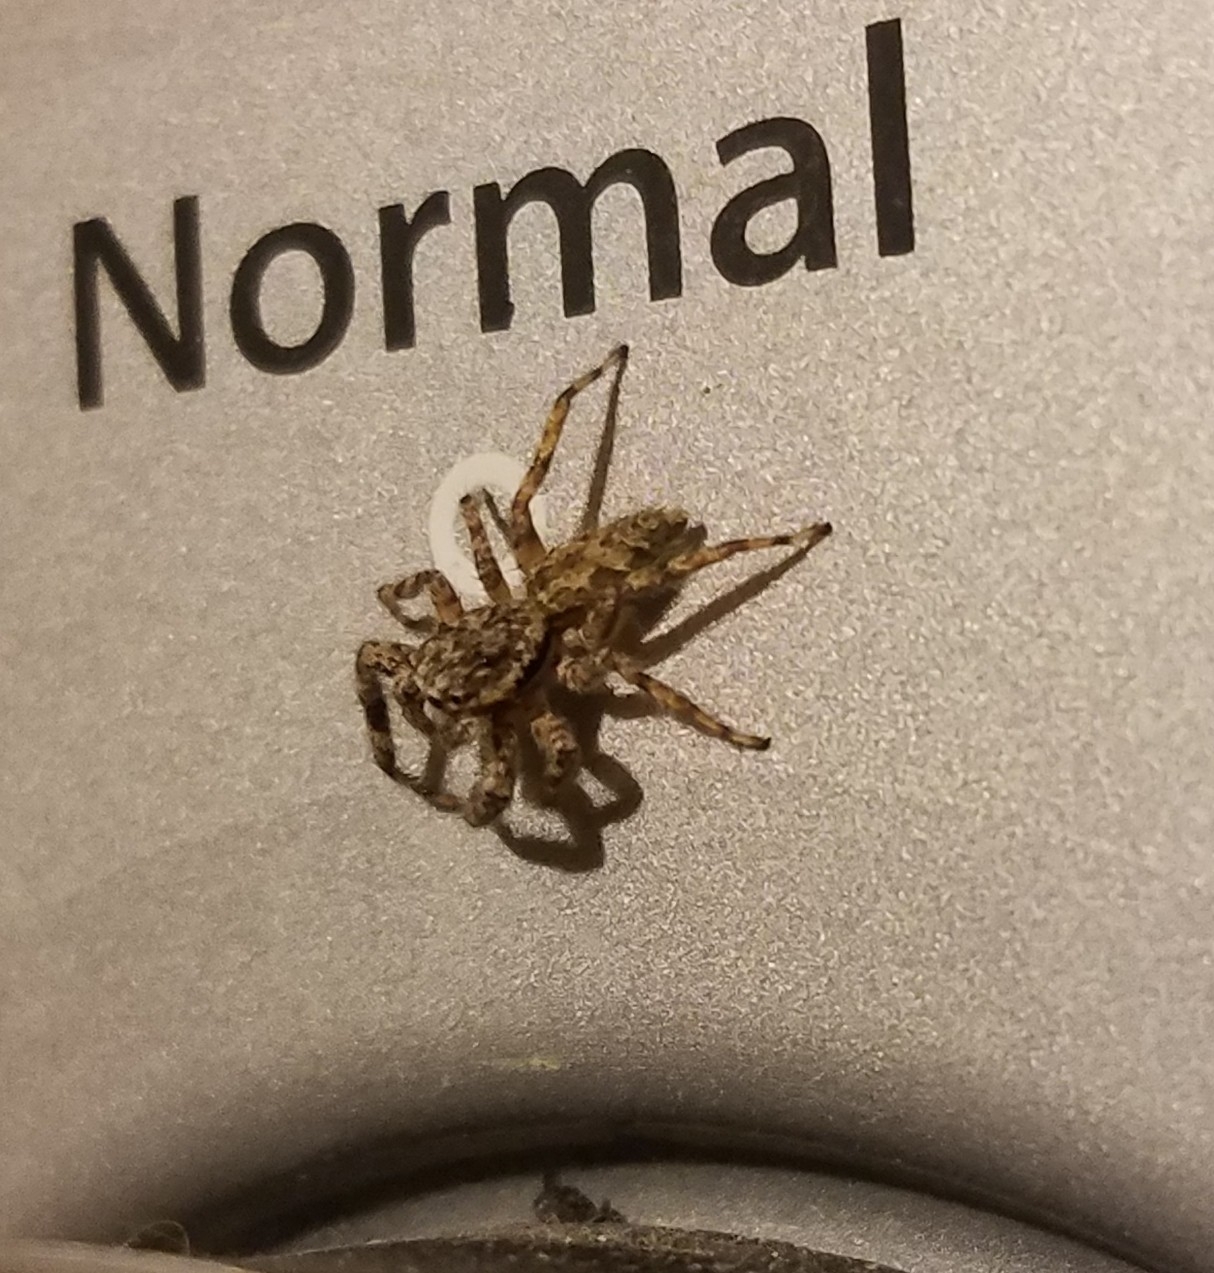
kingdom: Animalia
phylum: Arthropoda
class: Arachnida
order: Araneae
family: Salticidae
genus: Platycryptus
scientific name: Platycryptus undatus
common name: Tan jumping spider
